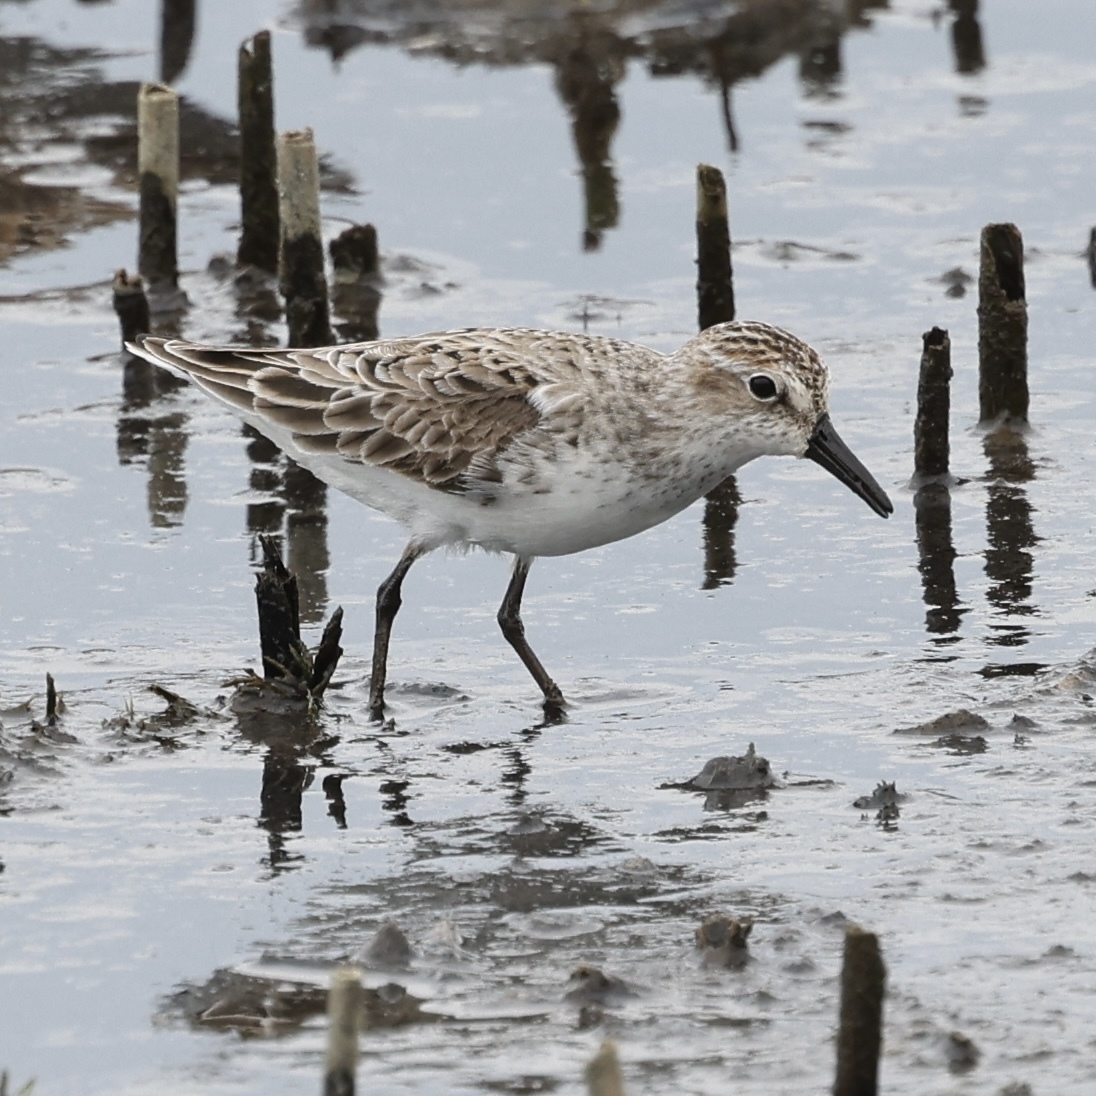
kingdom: Animalia
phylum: Chordata
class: Aves
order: Charadriiformes
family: Scolopacidae
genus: Calidris
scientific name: Calidris pusilla
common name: Semipalmated sandpiper
